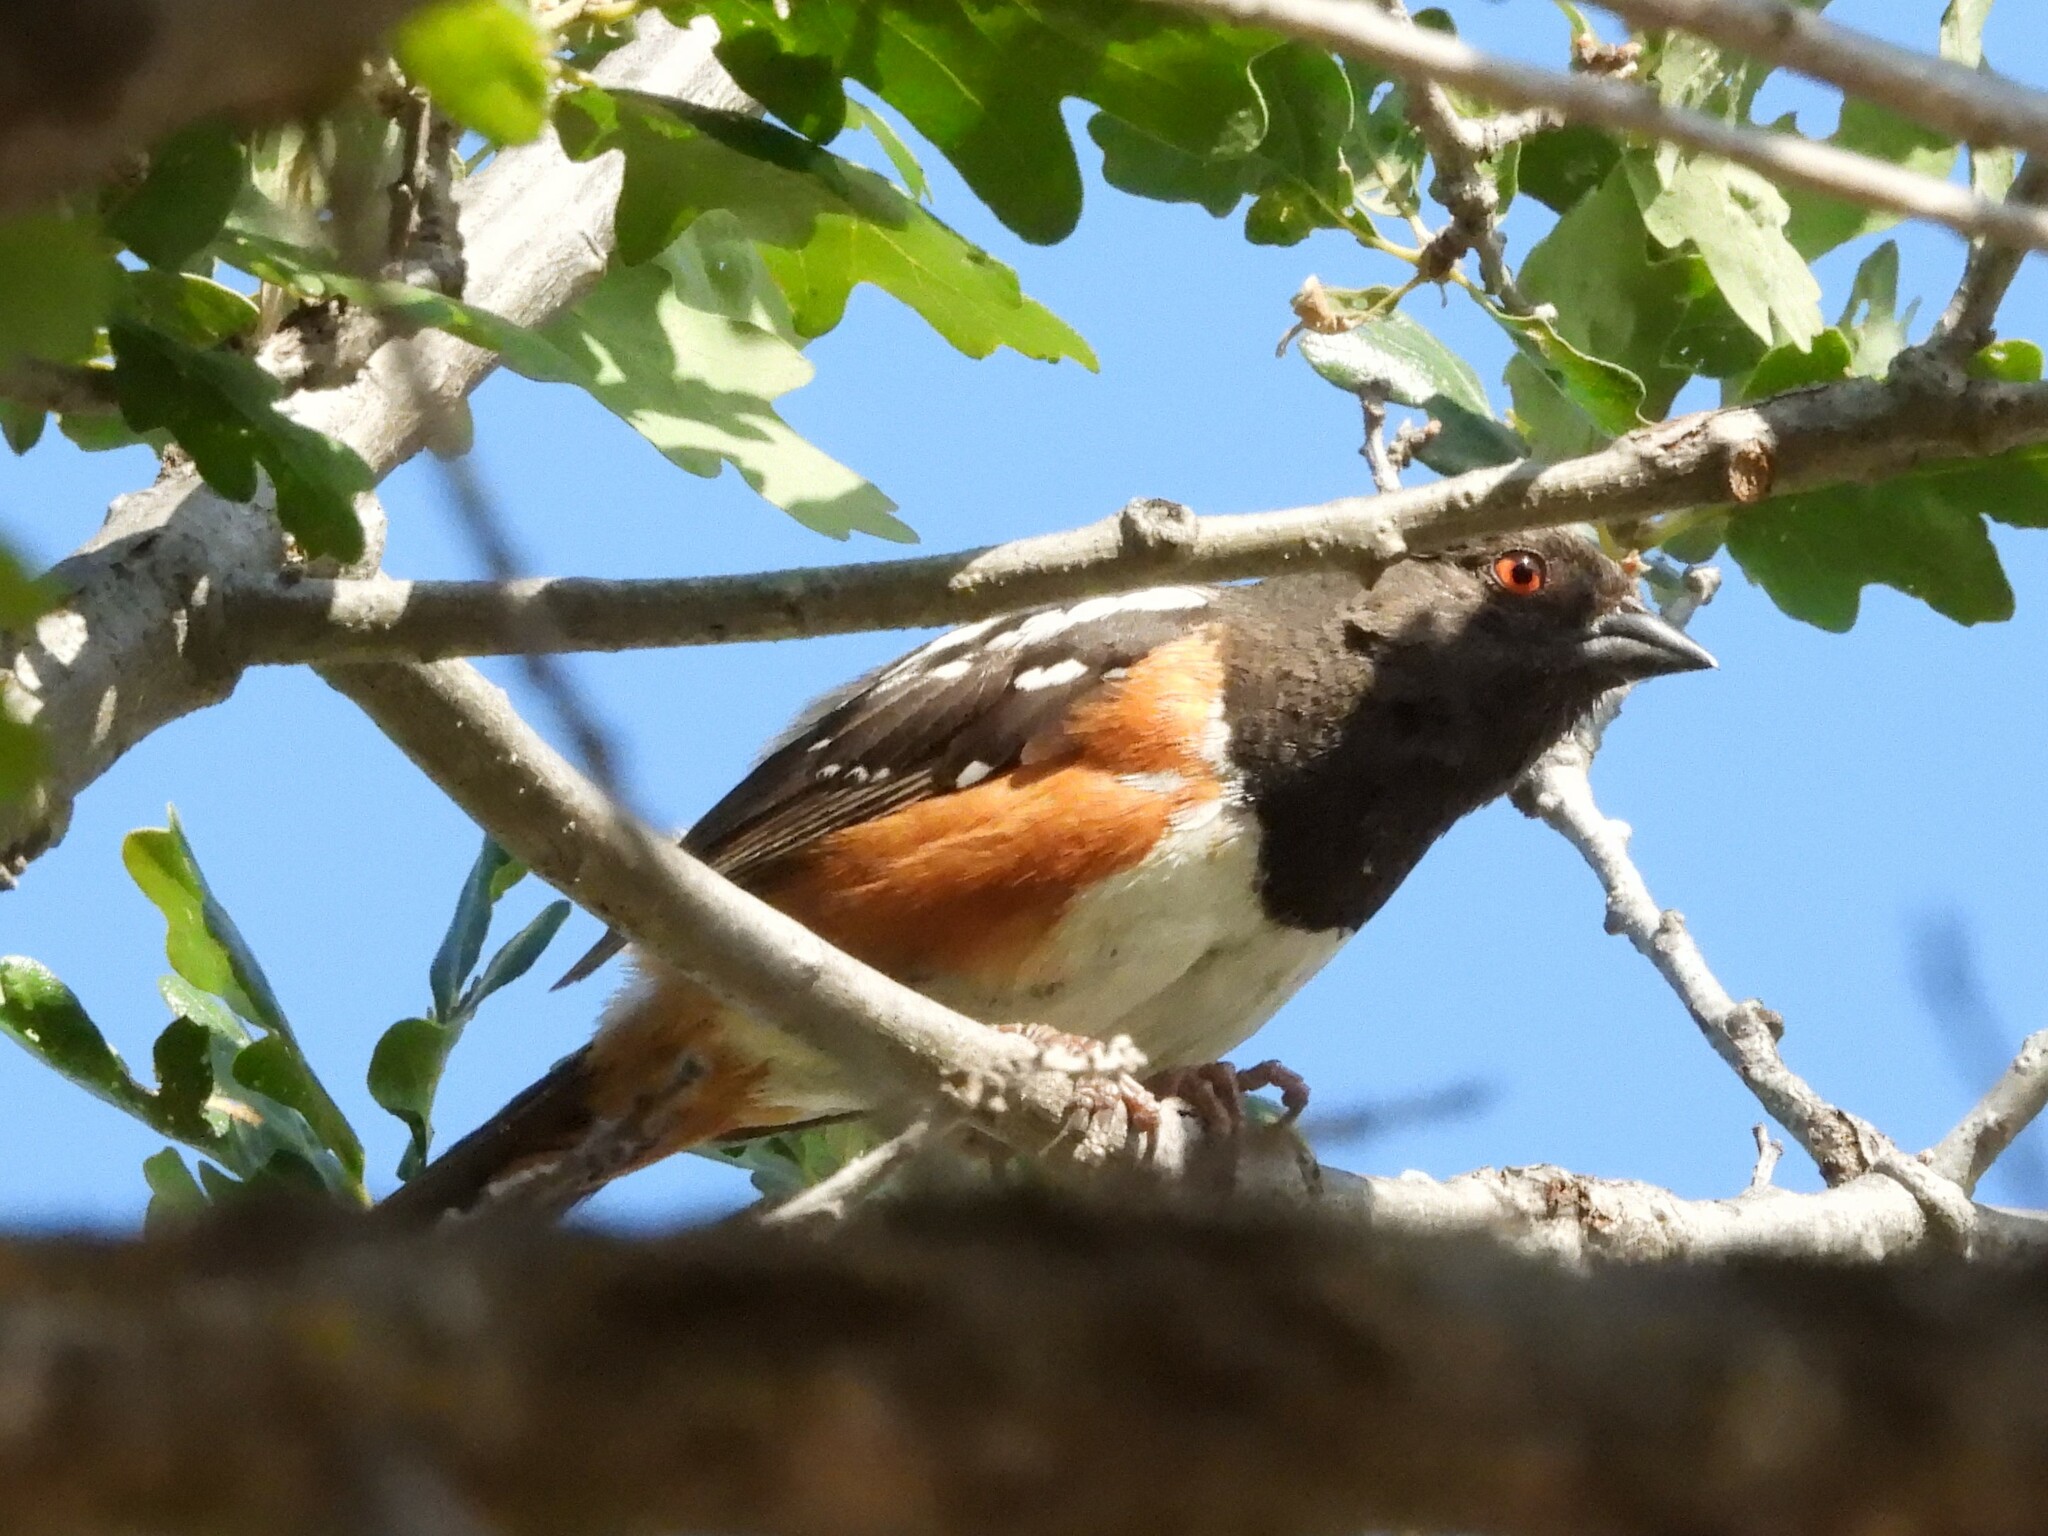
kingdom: Animalia
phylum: Chordata
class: Aves
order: Passeriformes
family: Passerellidae
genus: Pipilo
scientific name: Pipilo maculatus
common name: Spotted towhee
